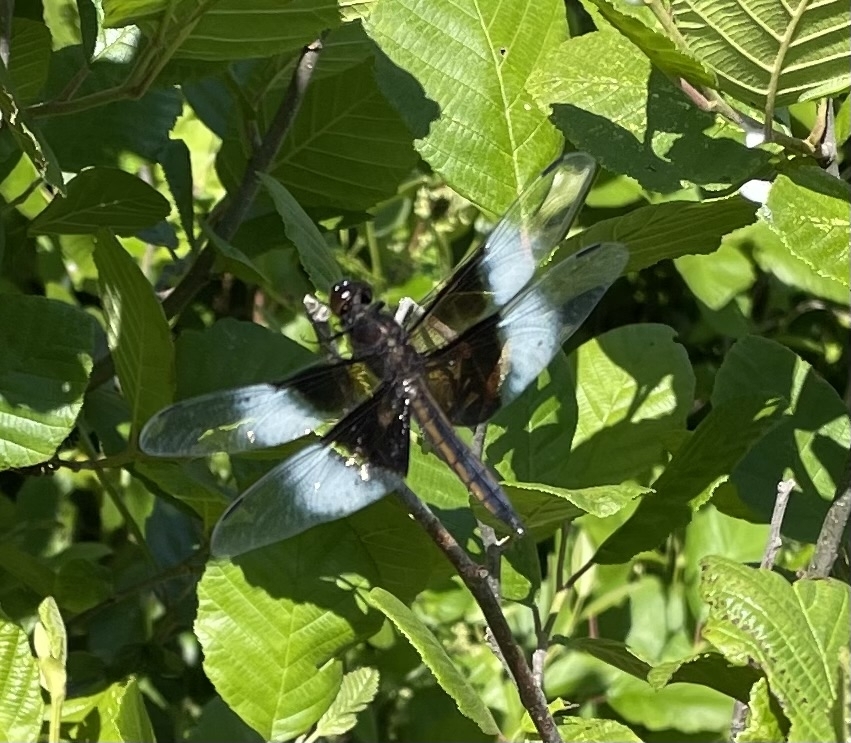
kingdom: Animalia
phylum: Arthropoda
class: Insecta
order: Odonata
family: Libellulidae
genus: Libellula
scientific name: Libellula luctuosa
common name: Widow skimmer
